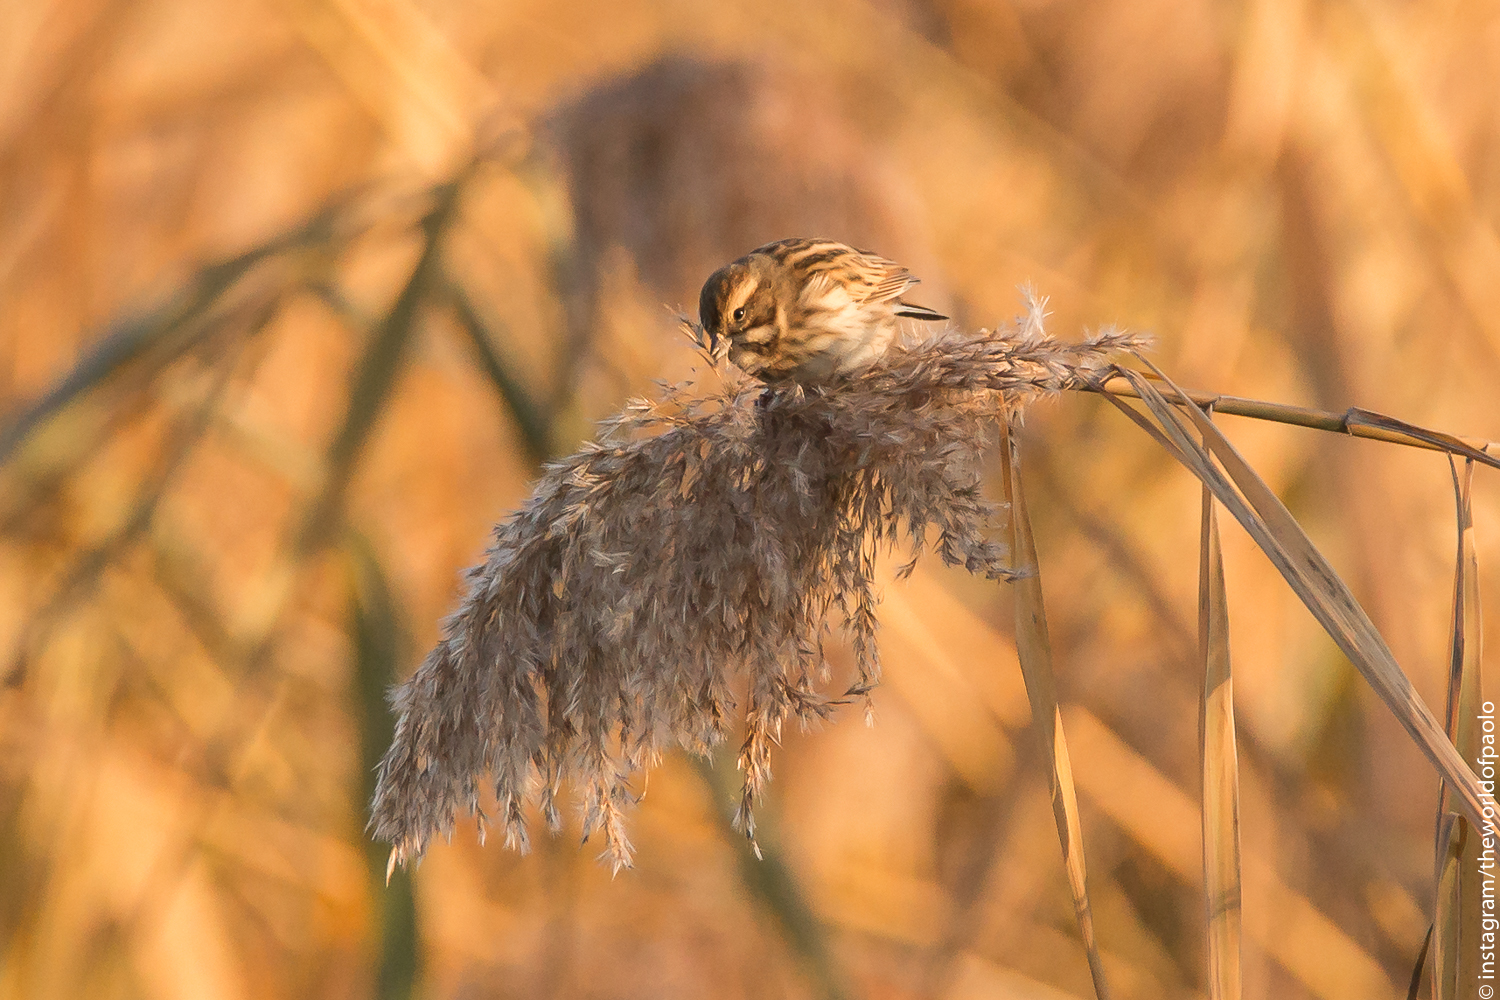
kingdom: Animalia
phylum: Chordata
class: Aves
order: Passeriformes
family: Emberizidae
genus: Emberiza
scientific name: Emberiza schoeniclus
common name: Reed bunting
